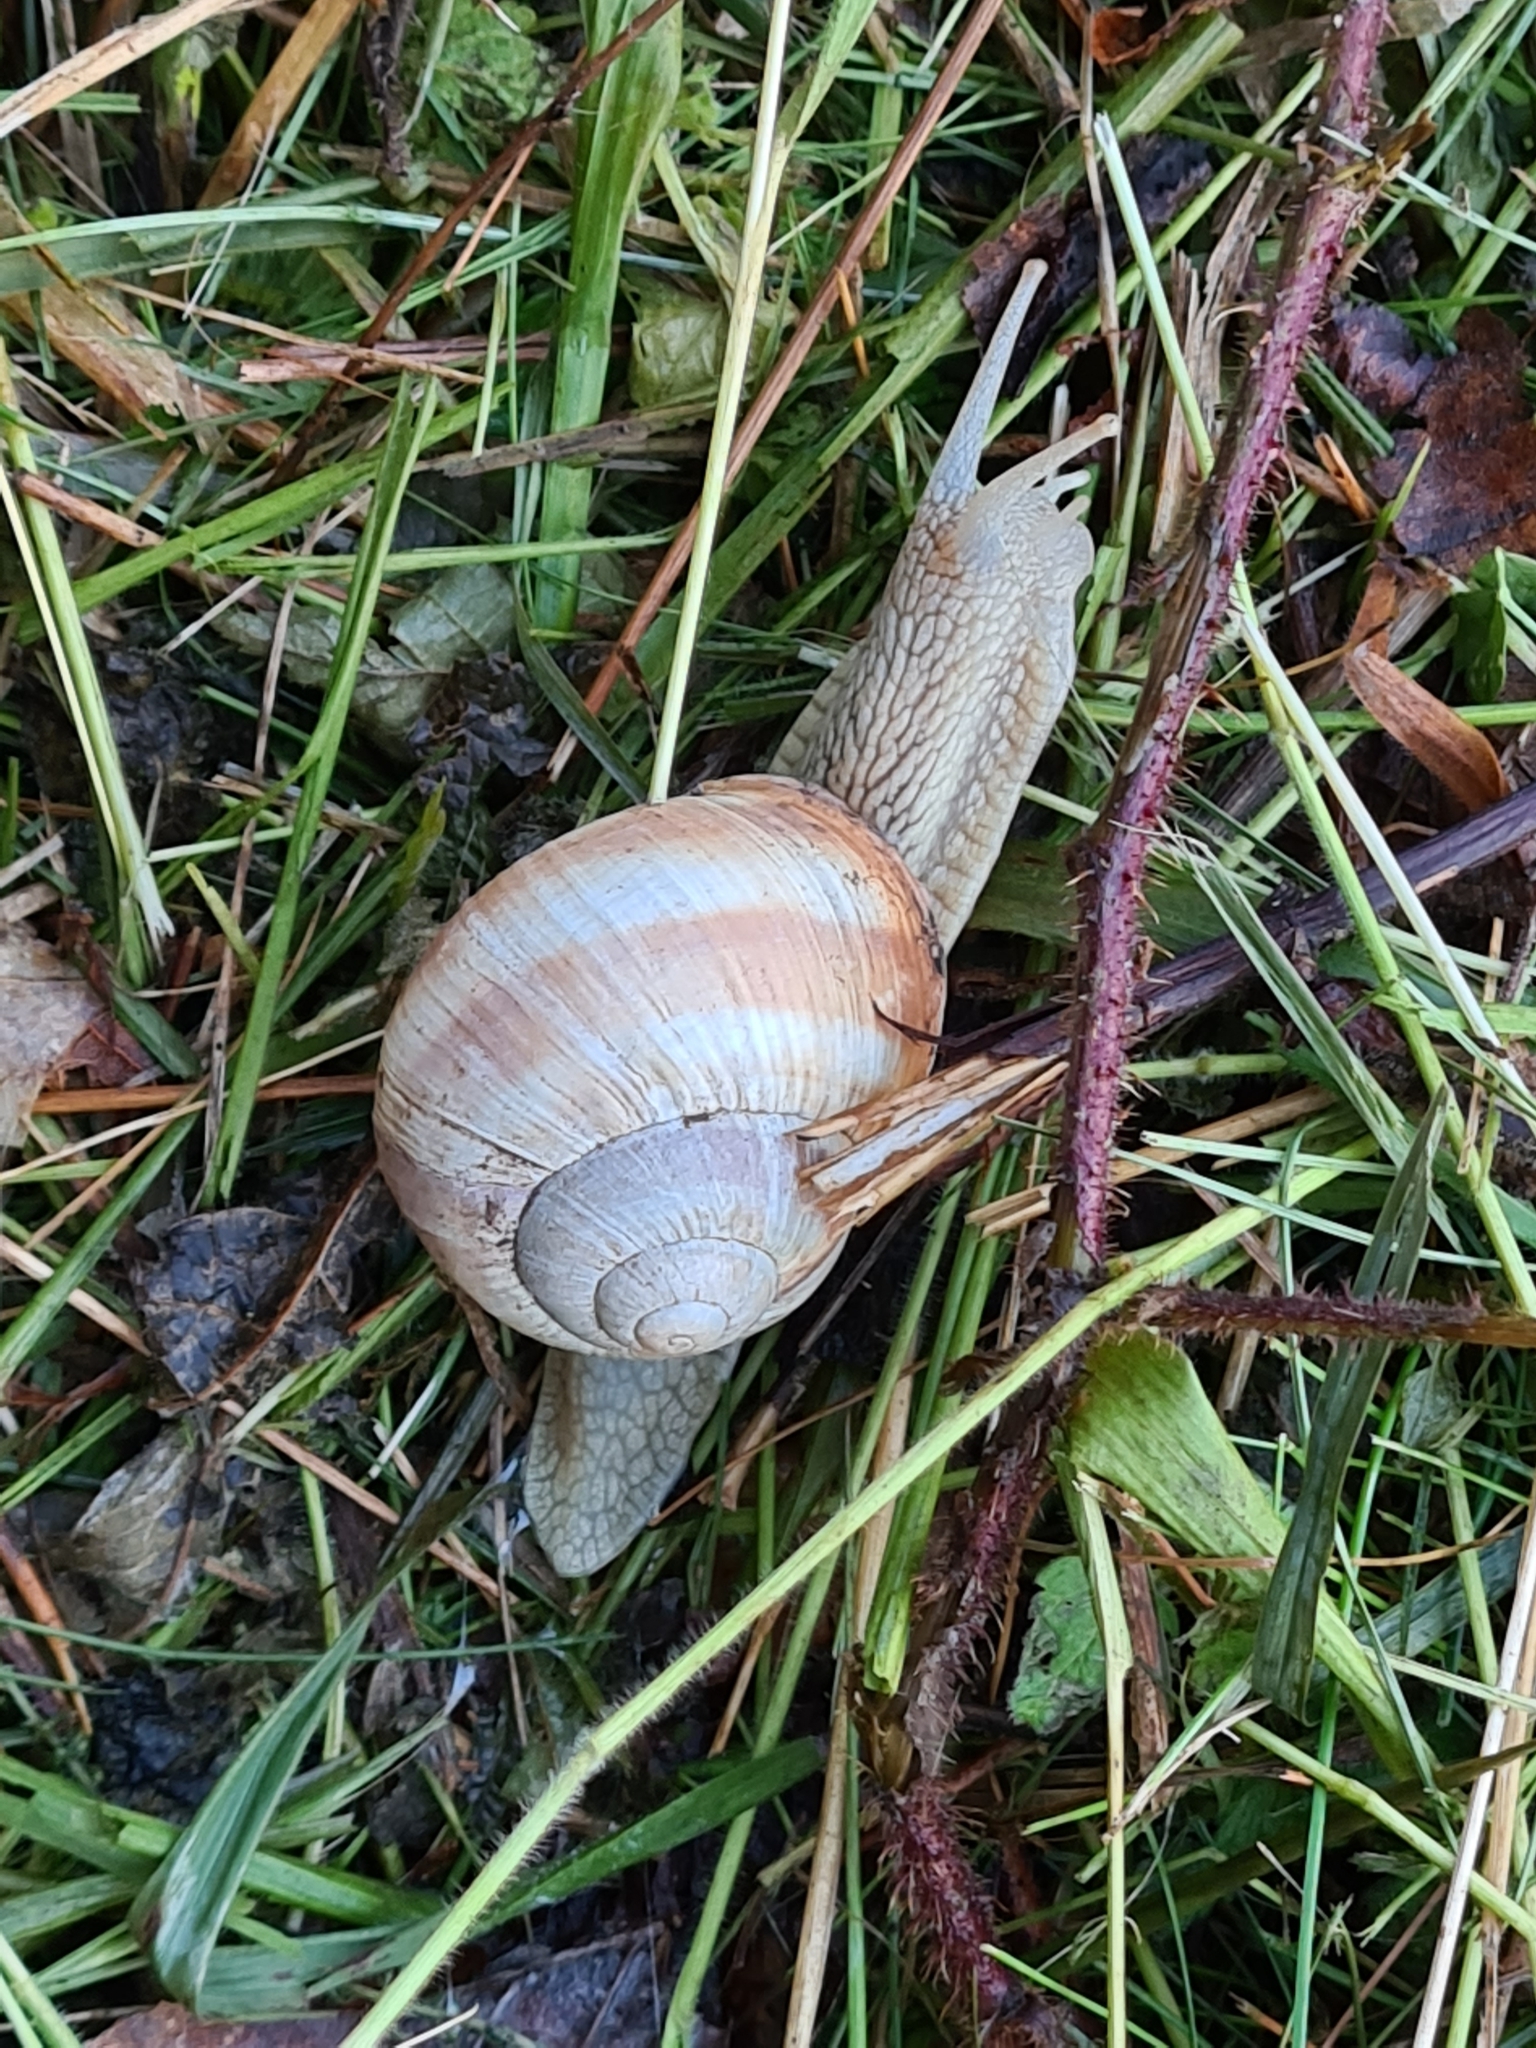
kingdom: Animalia
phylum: Mollusca
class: Gastropoda
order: Stylommatophora
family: Helicidae
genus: Helix
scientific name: Helix pomatia
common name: Roman snail
